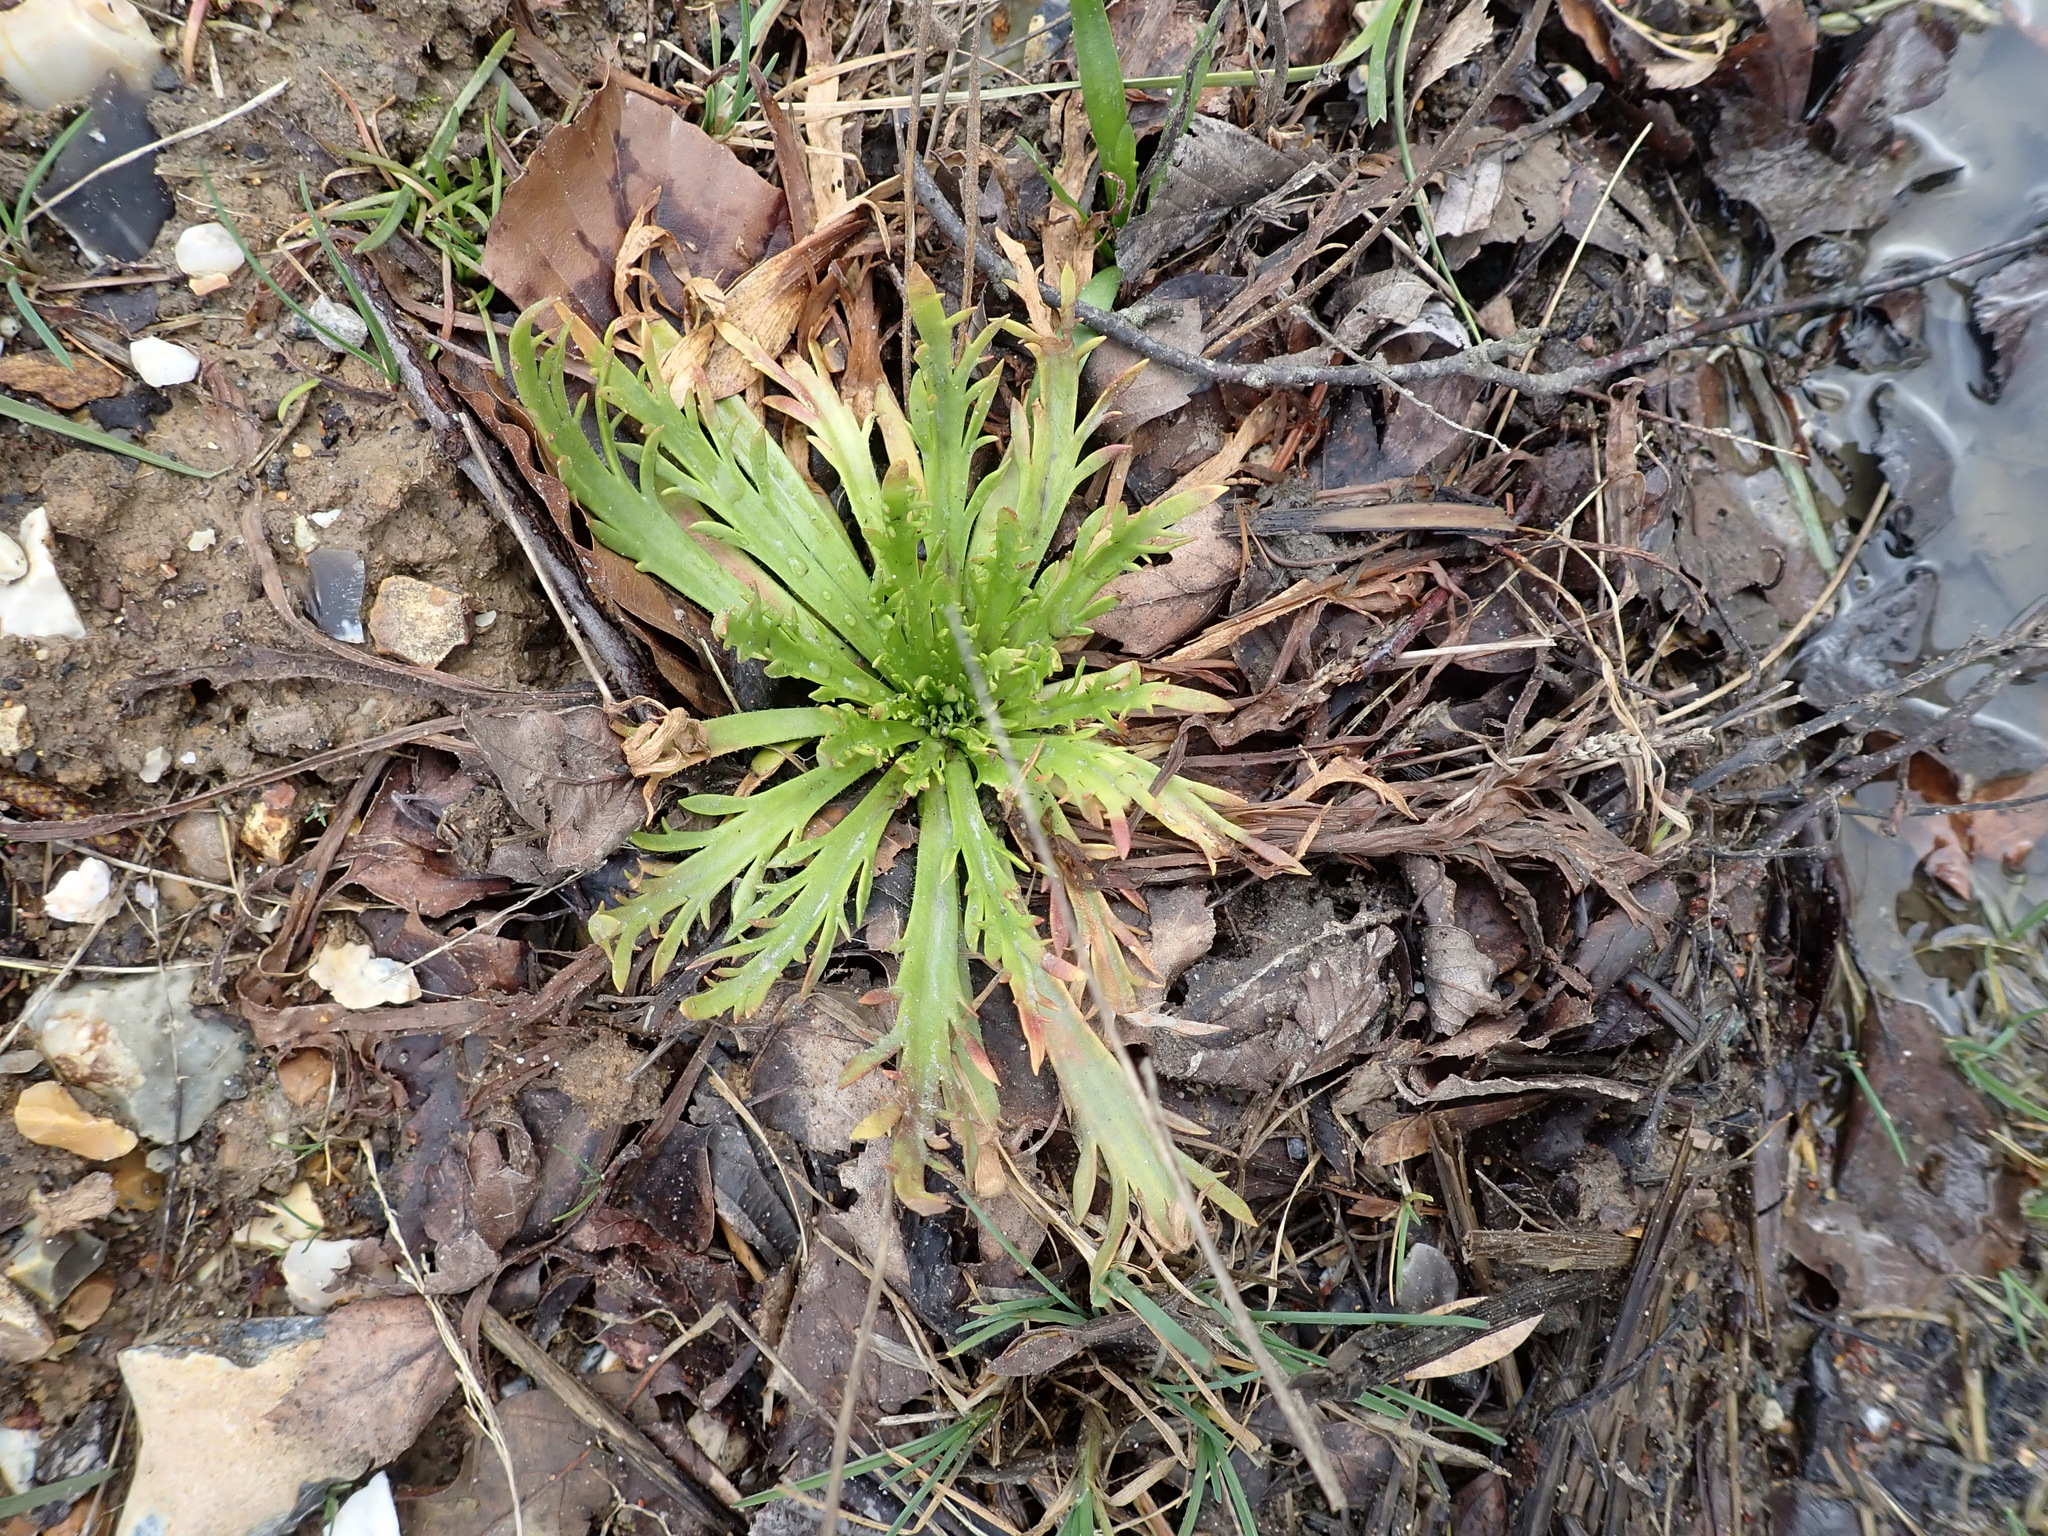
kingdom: Plantae
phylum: Tracheophyta
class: Magnoliopsida
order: Lamiales
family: Plantaginaceae
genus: Plantago
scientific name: Plantago coronopus
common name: Buck's-horn plantain
